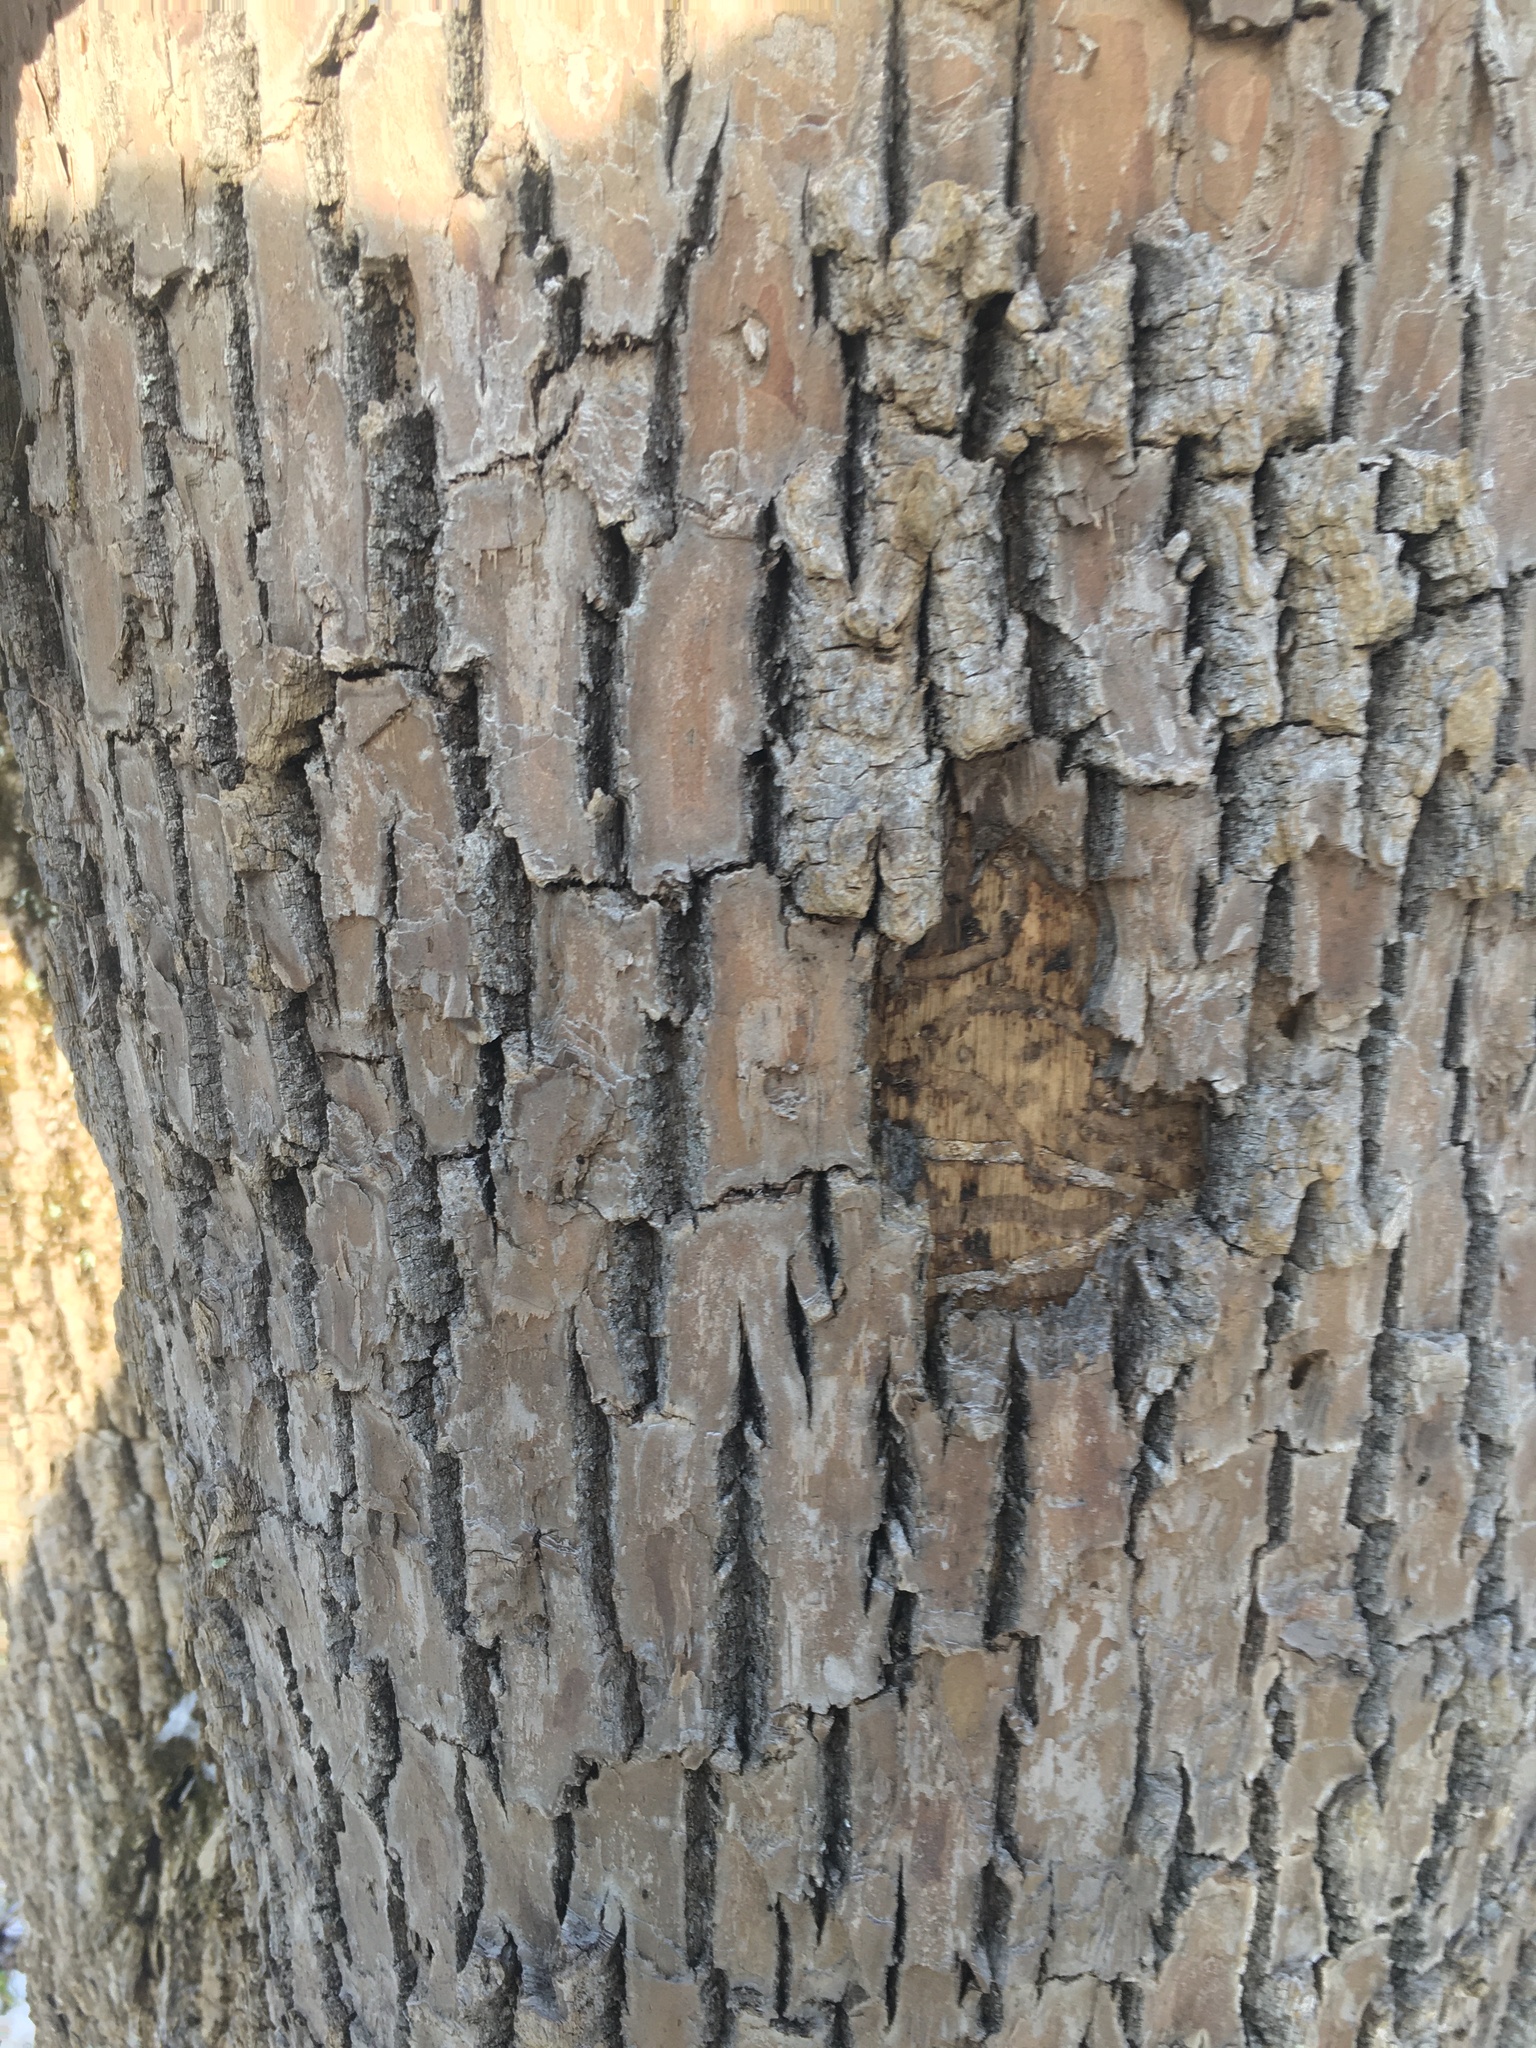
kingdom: Animalia
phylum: Arthropoda
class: Insecta
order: Coleoptera
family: Buprestidae
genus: Agrilus
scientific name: Agrilus planipennis
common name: Emerald ash borer
